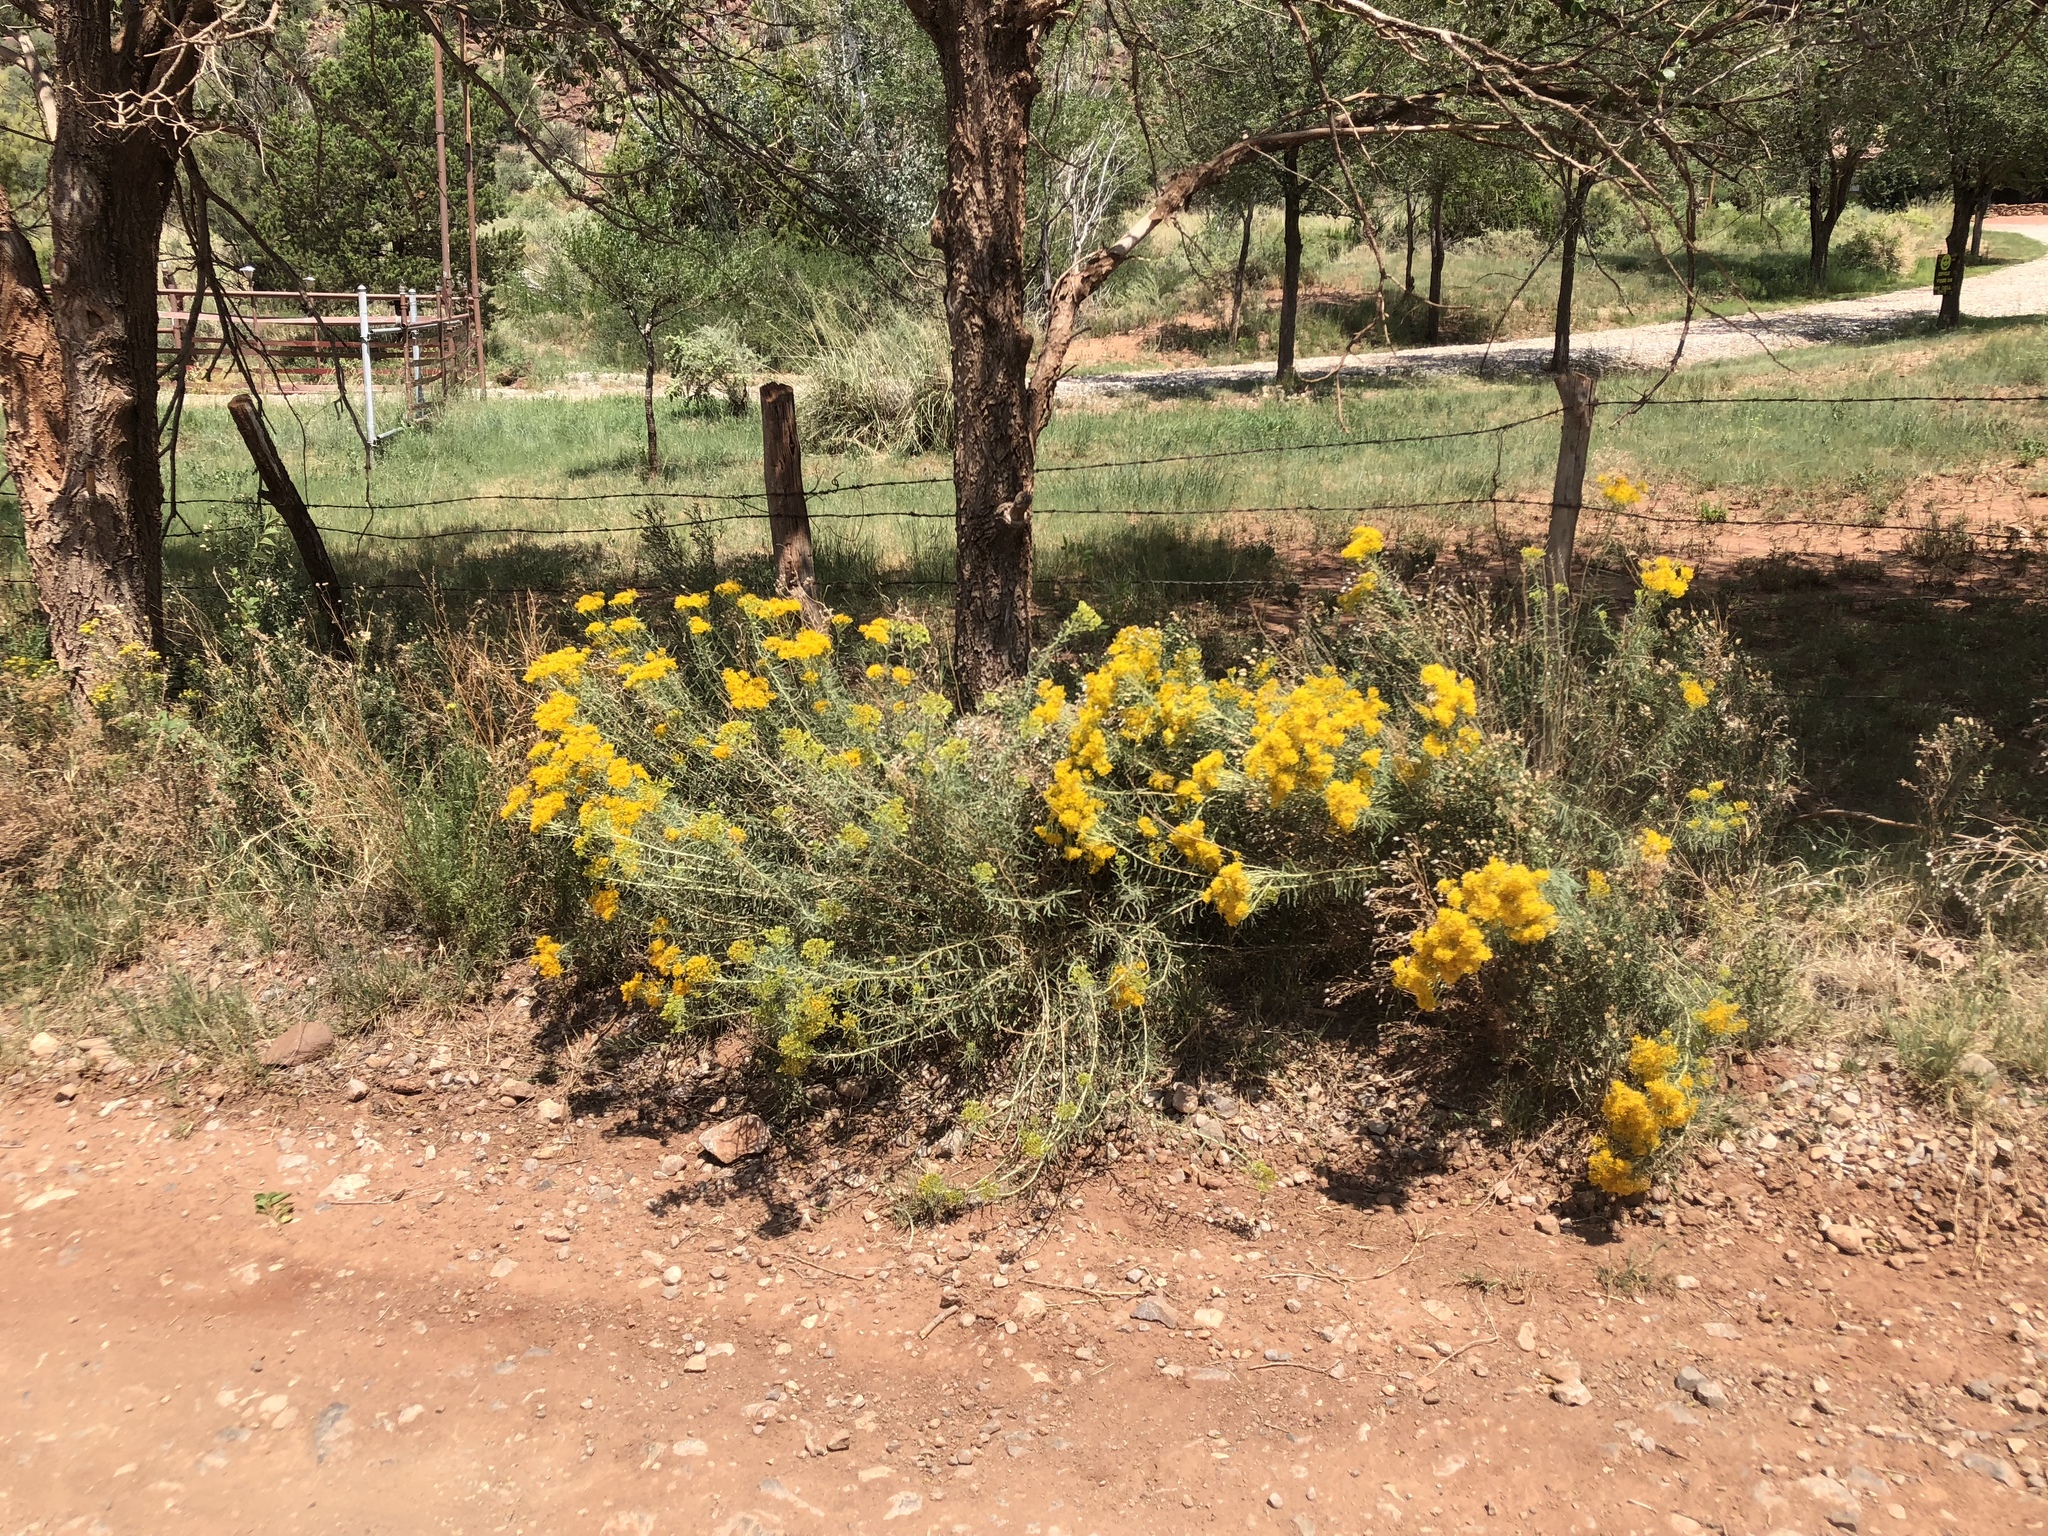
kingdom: Plantae
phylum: Tracheophyta
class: Magnoliopsida
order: Asterales
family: Asteraceae
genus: Ericameria
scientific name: Ericameria nauseosa
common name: Rubber rabbitbrush
